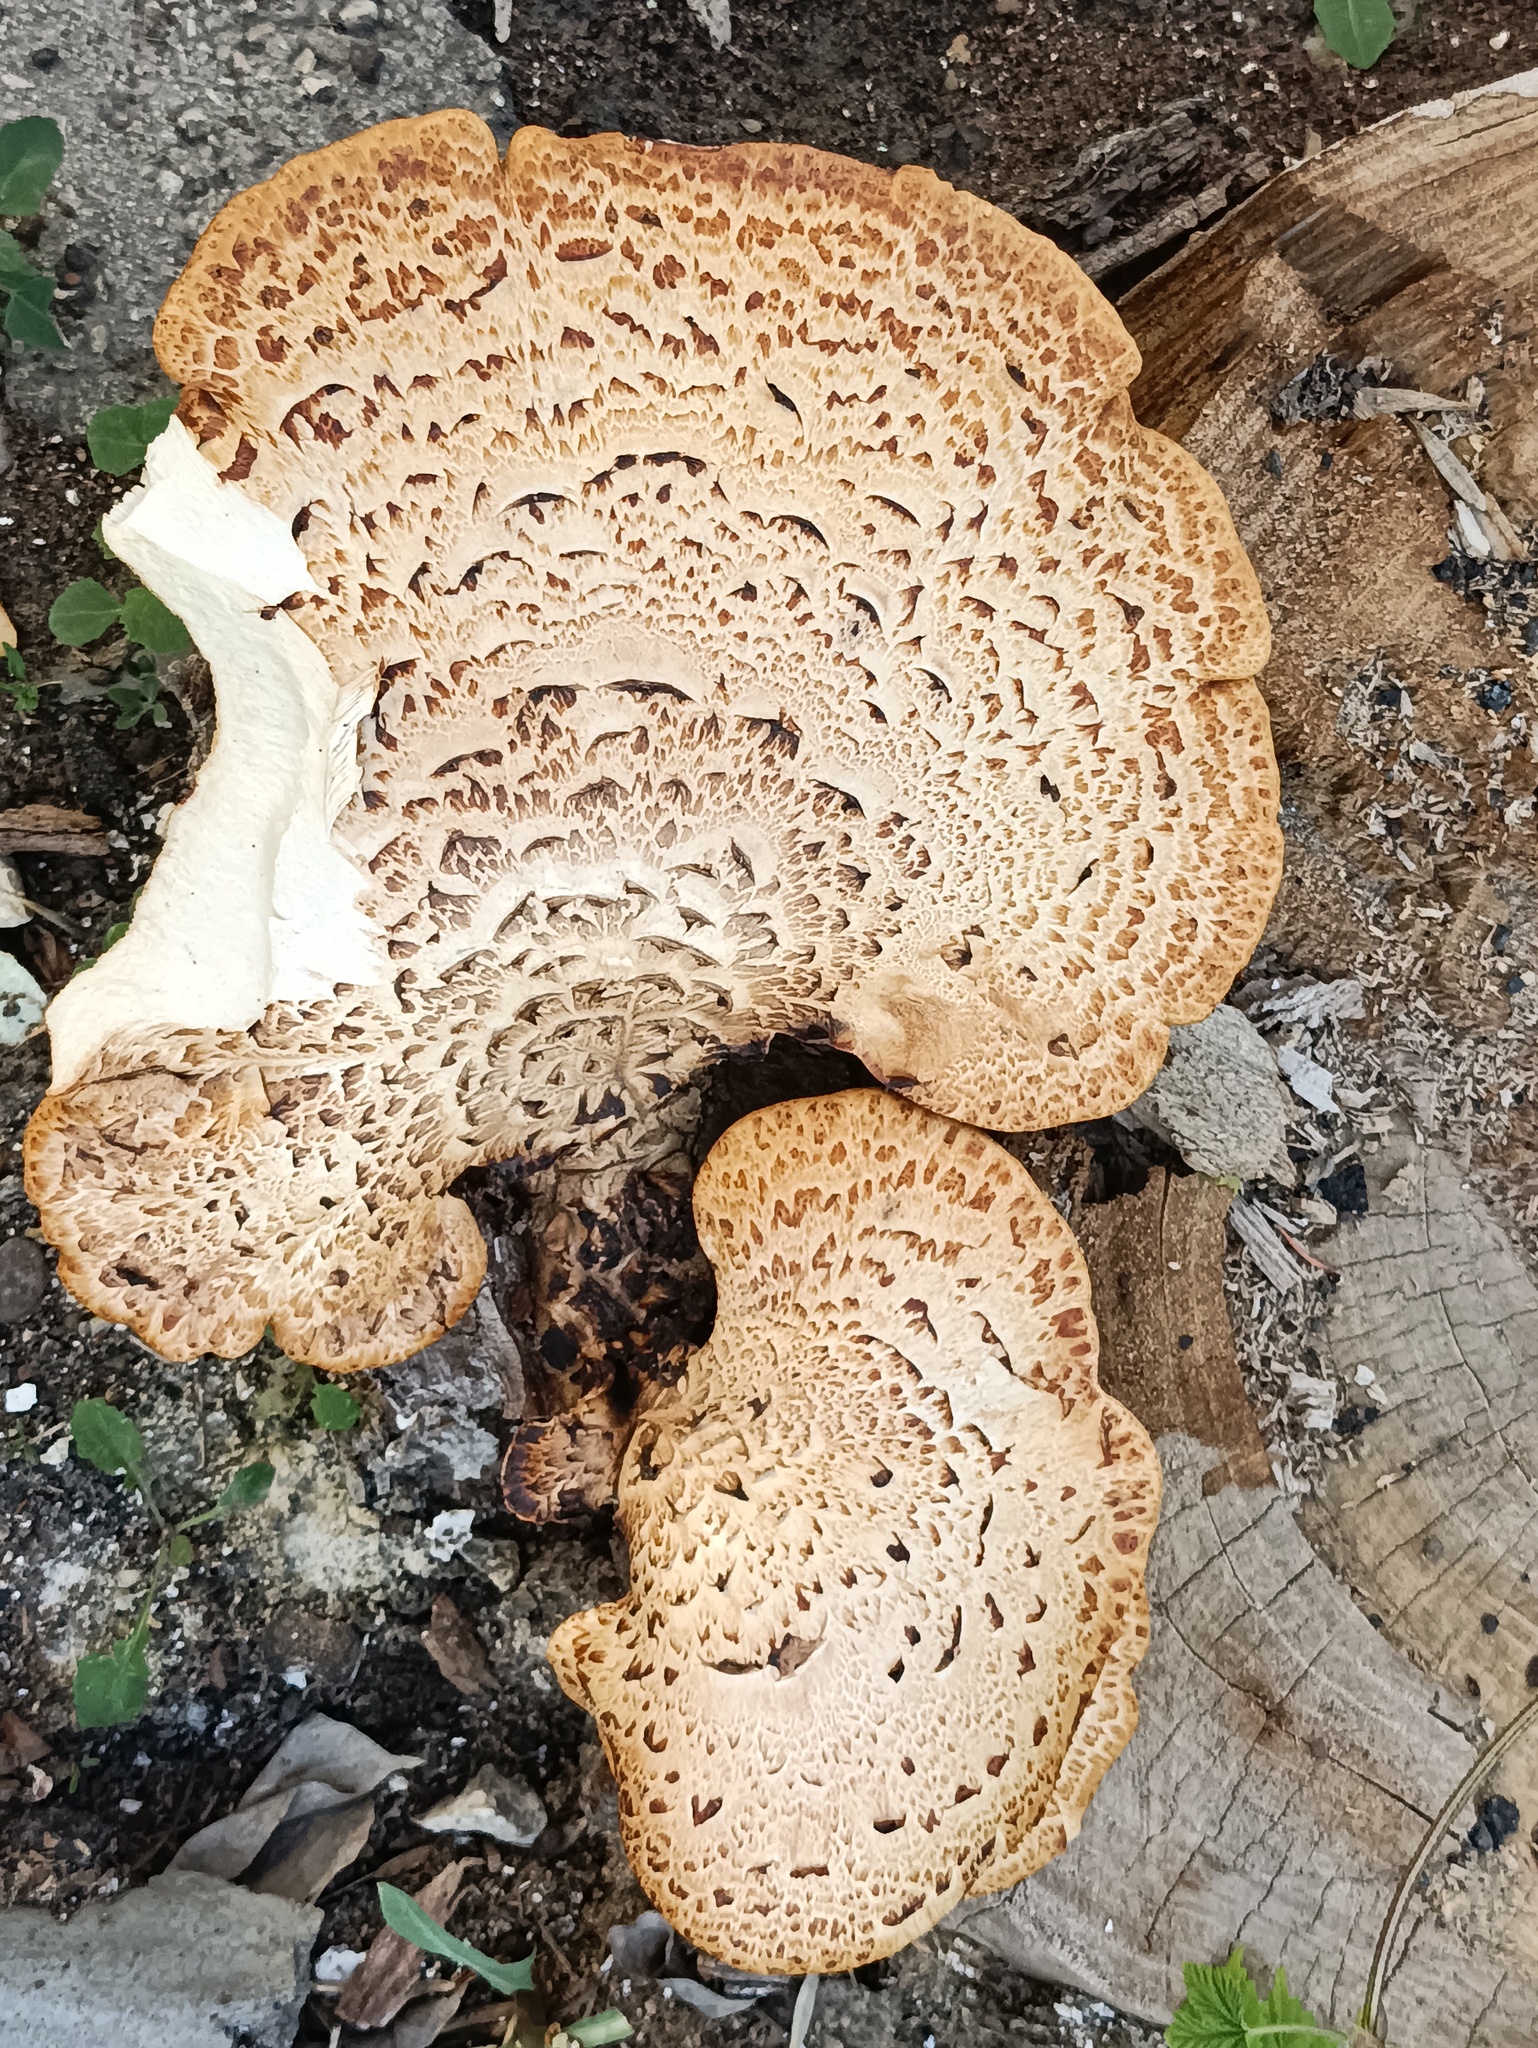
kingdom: Fungi
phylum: Basidiomycota
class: Agaricomycetes
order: Polyporales
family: Polyporaceae
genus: Cerioporus
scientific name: Cerioporus squamosus
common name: Dryad's saddle
